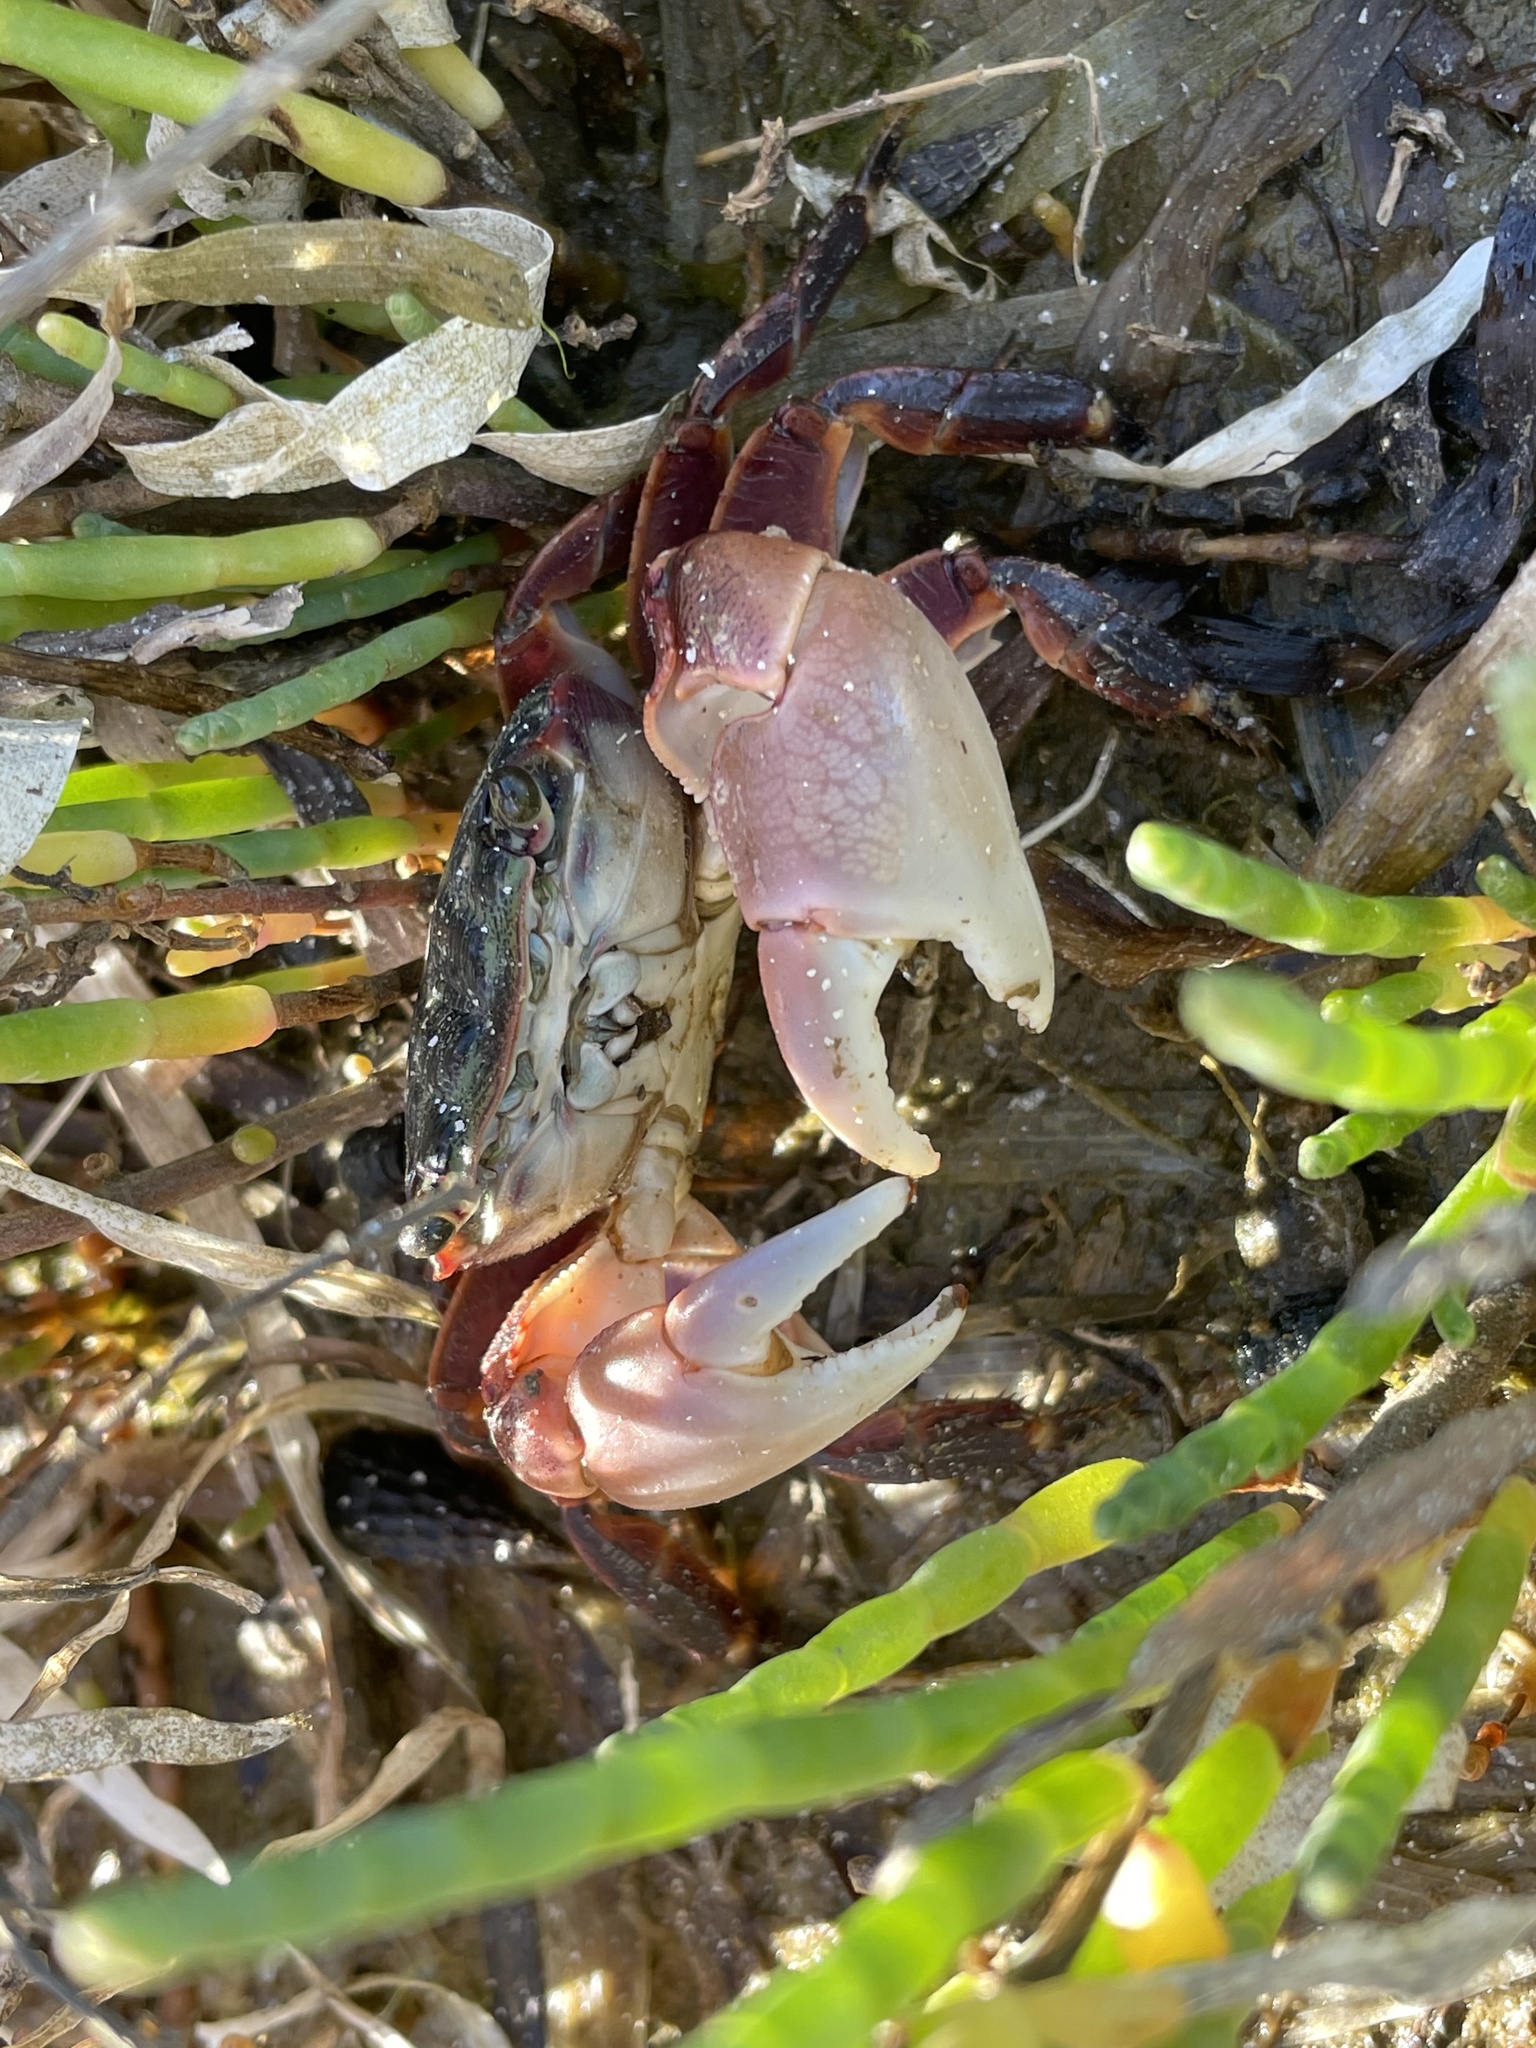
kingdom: Animalia
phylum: Arthropoda
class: Malacostraca
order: Decapoda
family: Grapsidae
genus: Pachygrapsus
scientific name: Pachygrapsus crassipes
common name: Striped shore crab
